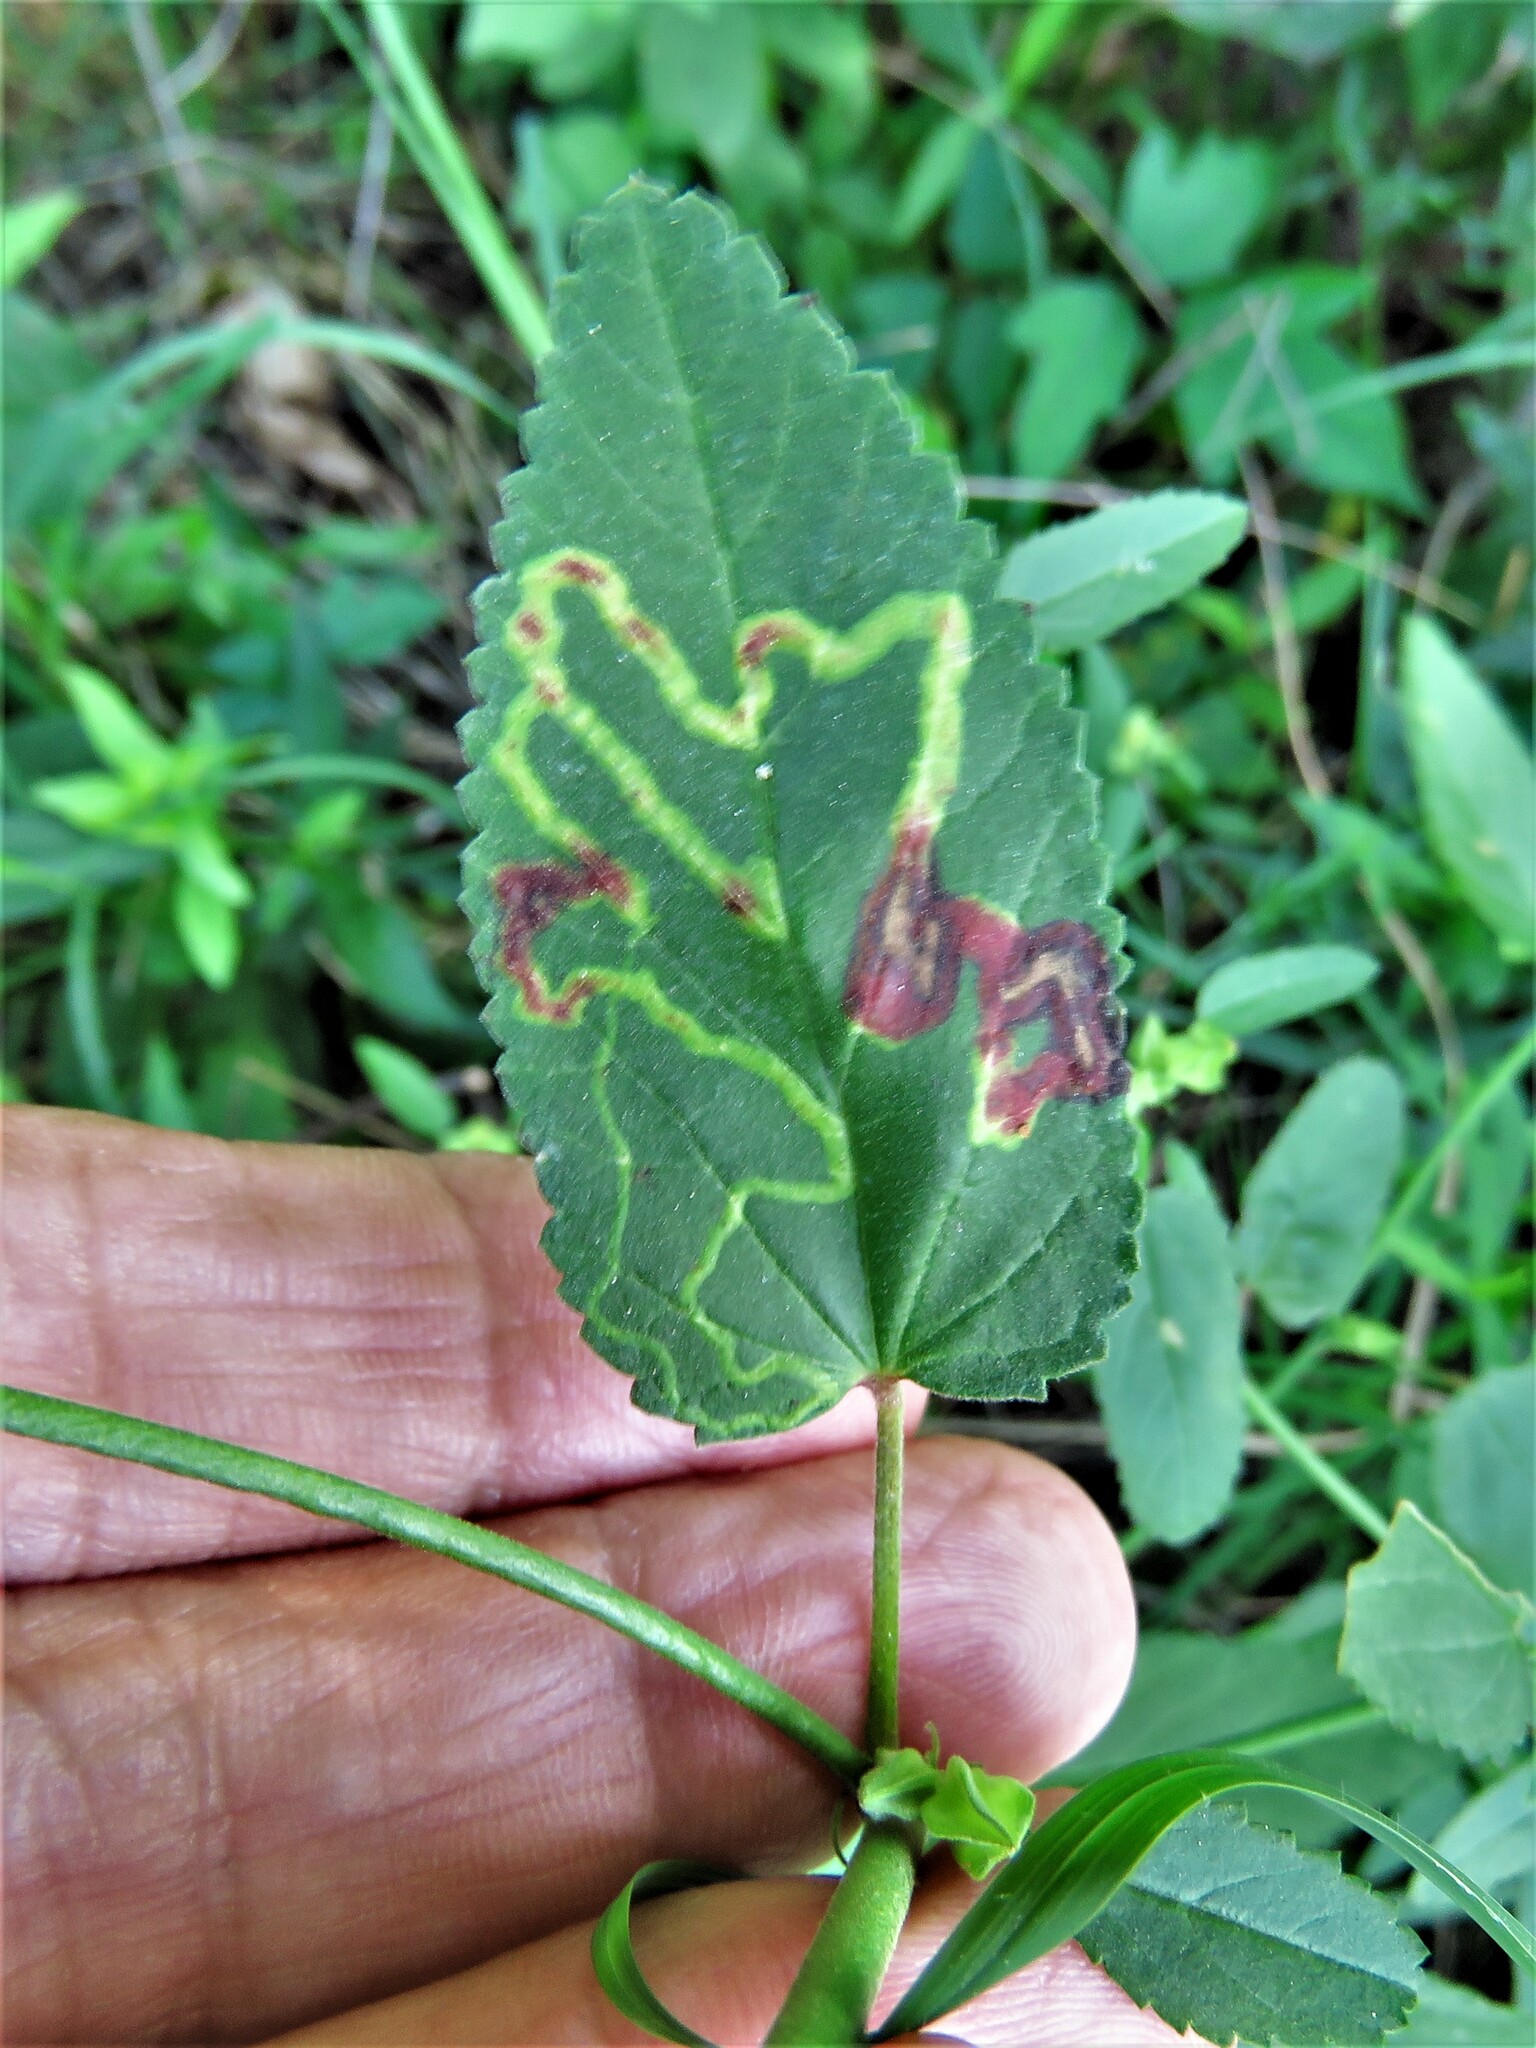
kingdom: Animalia
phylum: Arthropoda
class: Insecta
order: Diptera
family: Agromyzidae
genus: Calycomyza
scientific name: Calycomyza malvae
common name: Mallow leaf miner
